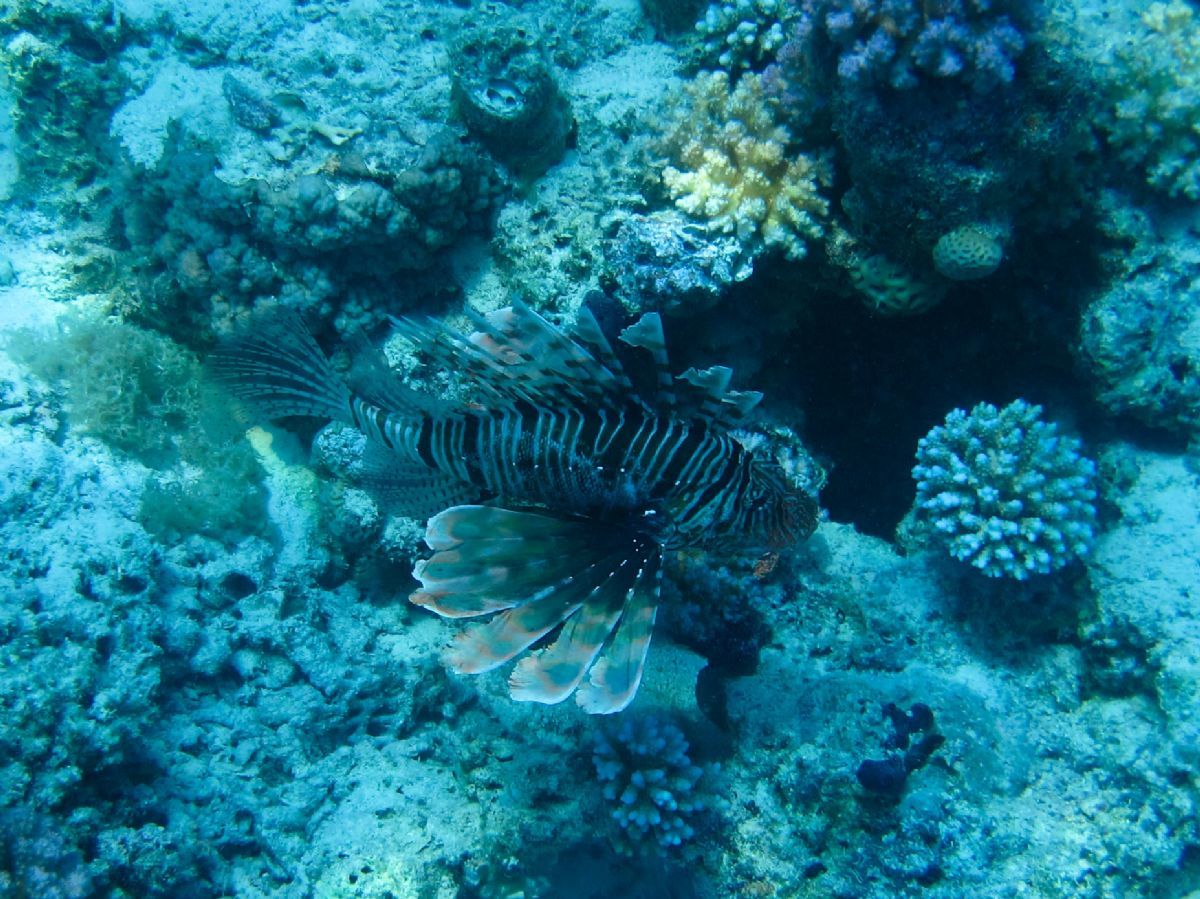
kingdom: Animalia
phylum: Chordata
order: Scorpaeniformes
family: Scorpaenidae
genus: Pterois
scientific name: Pterois miles
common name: Devil firefish
